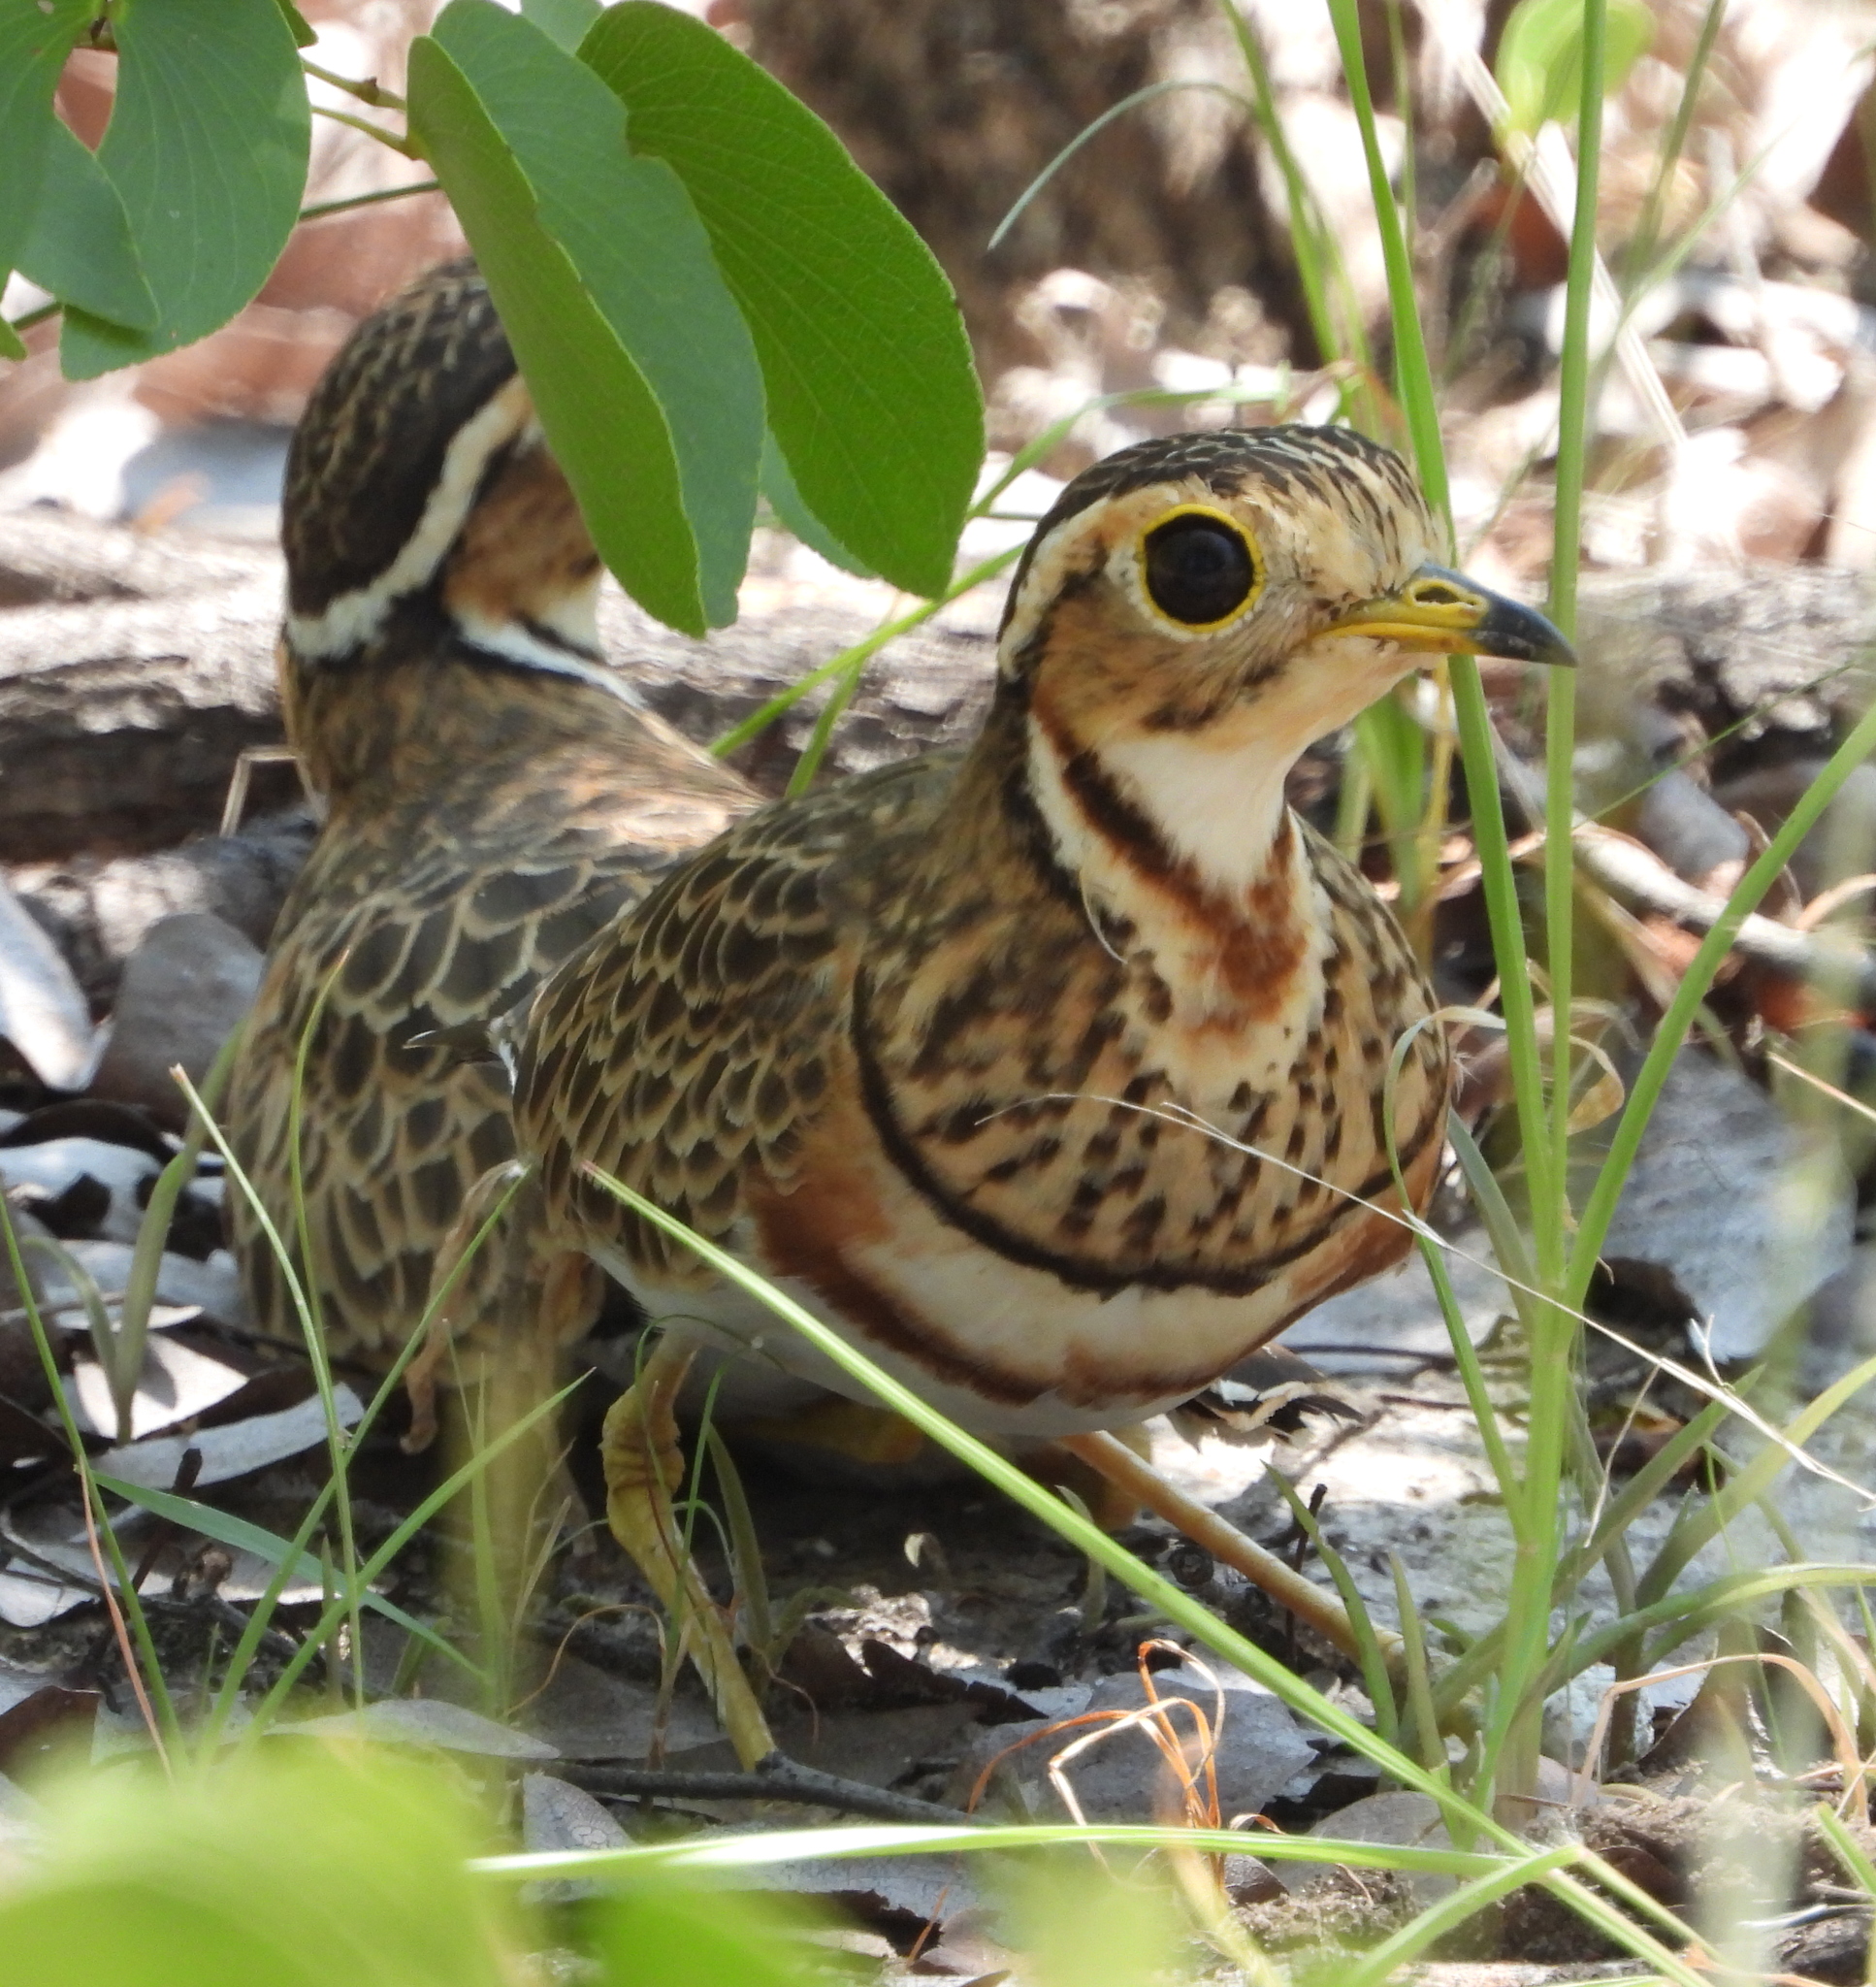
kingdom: Animalia
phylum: Chordata
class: Aves
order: Charadriiformes
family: Glareolidae
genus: Rhinoptilus
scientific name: Rhinoptilus cinctus
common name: Three-banded courser
